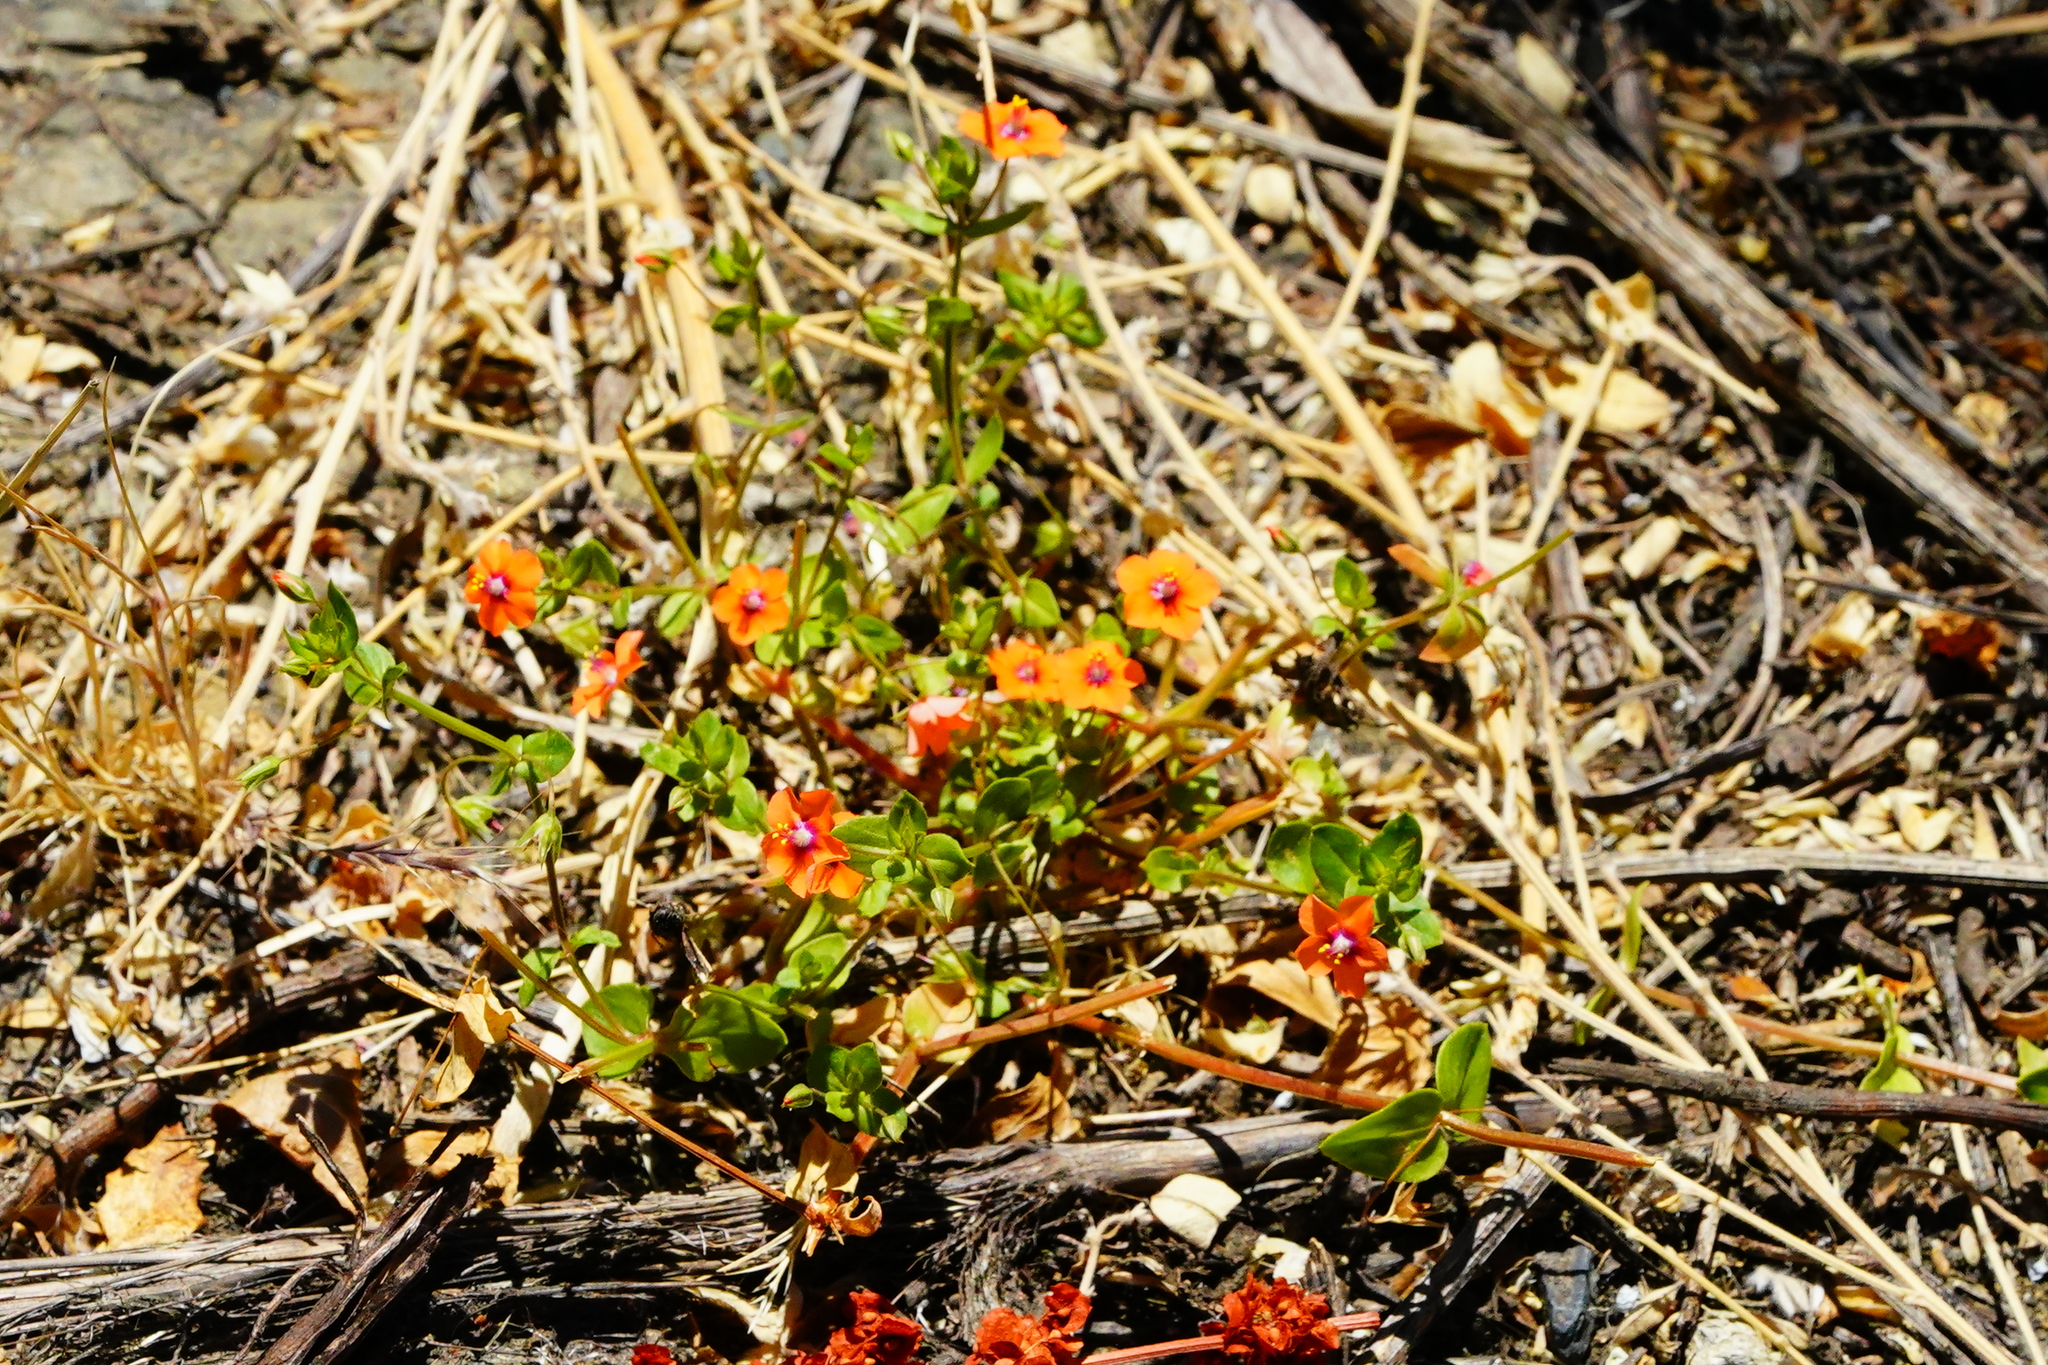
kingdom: Plantae
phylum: Tracheophyta
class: Magnoliopsida
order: Ericales
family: Primulaceae
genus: Lysimachia
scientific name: Lysimachia arvensis
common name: Scarlet pimpernel
